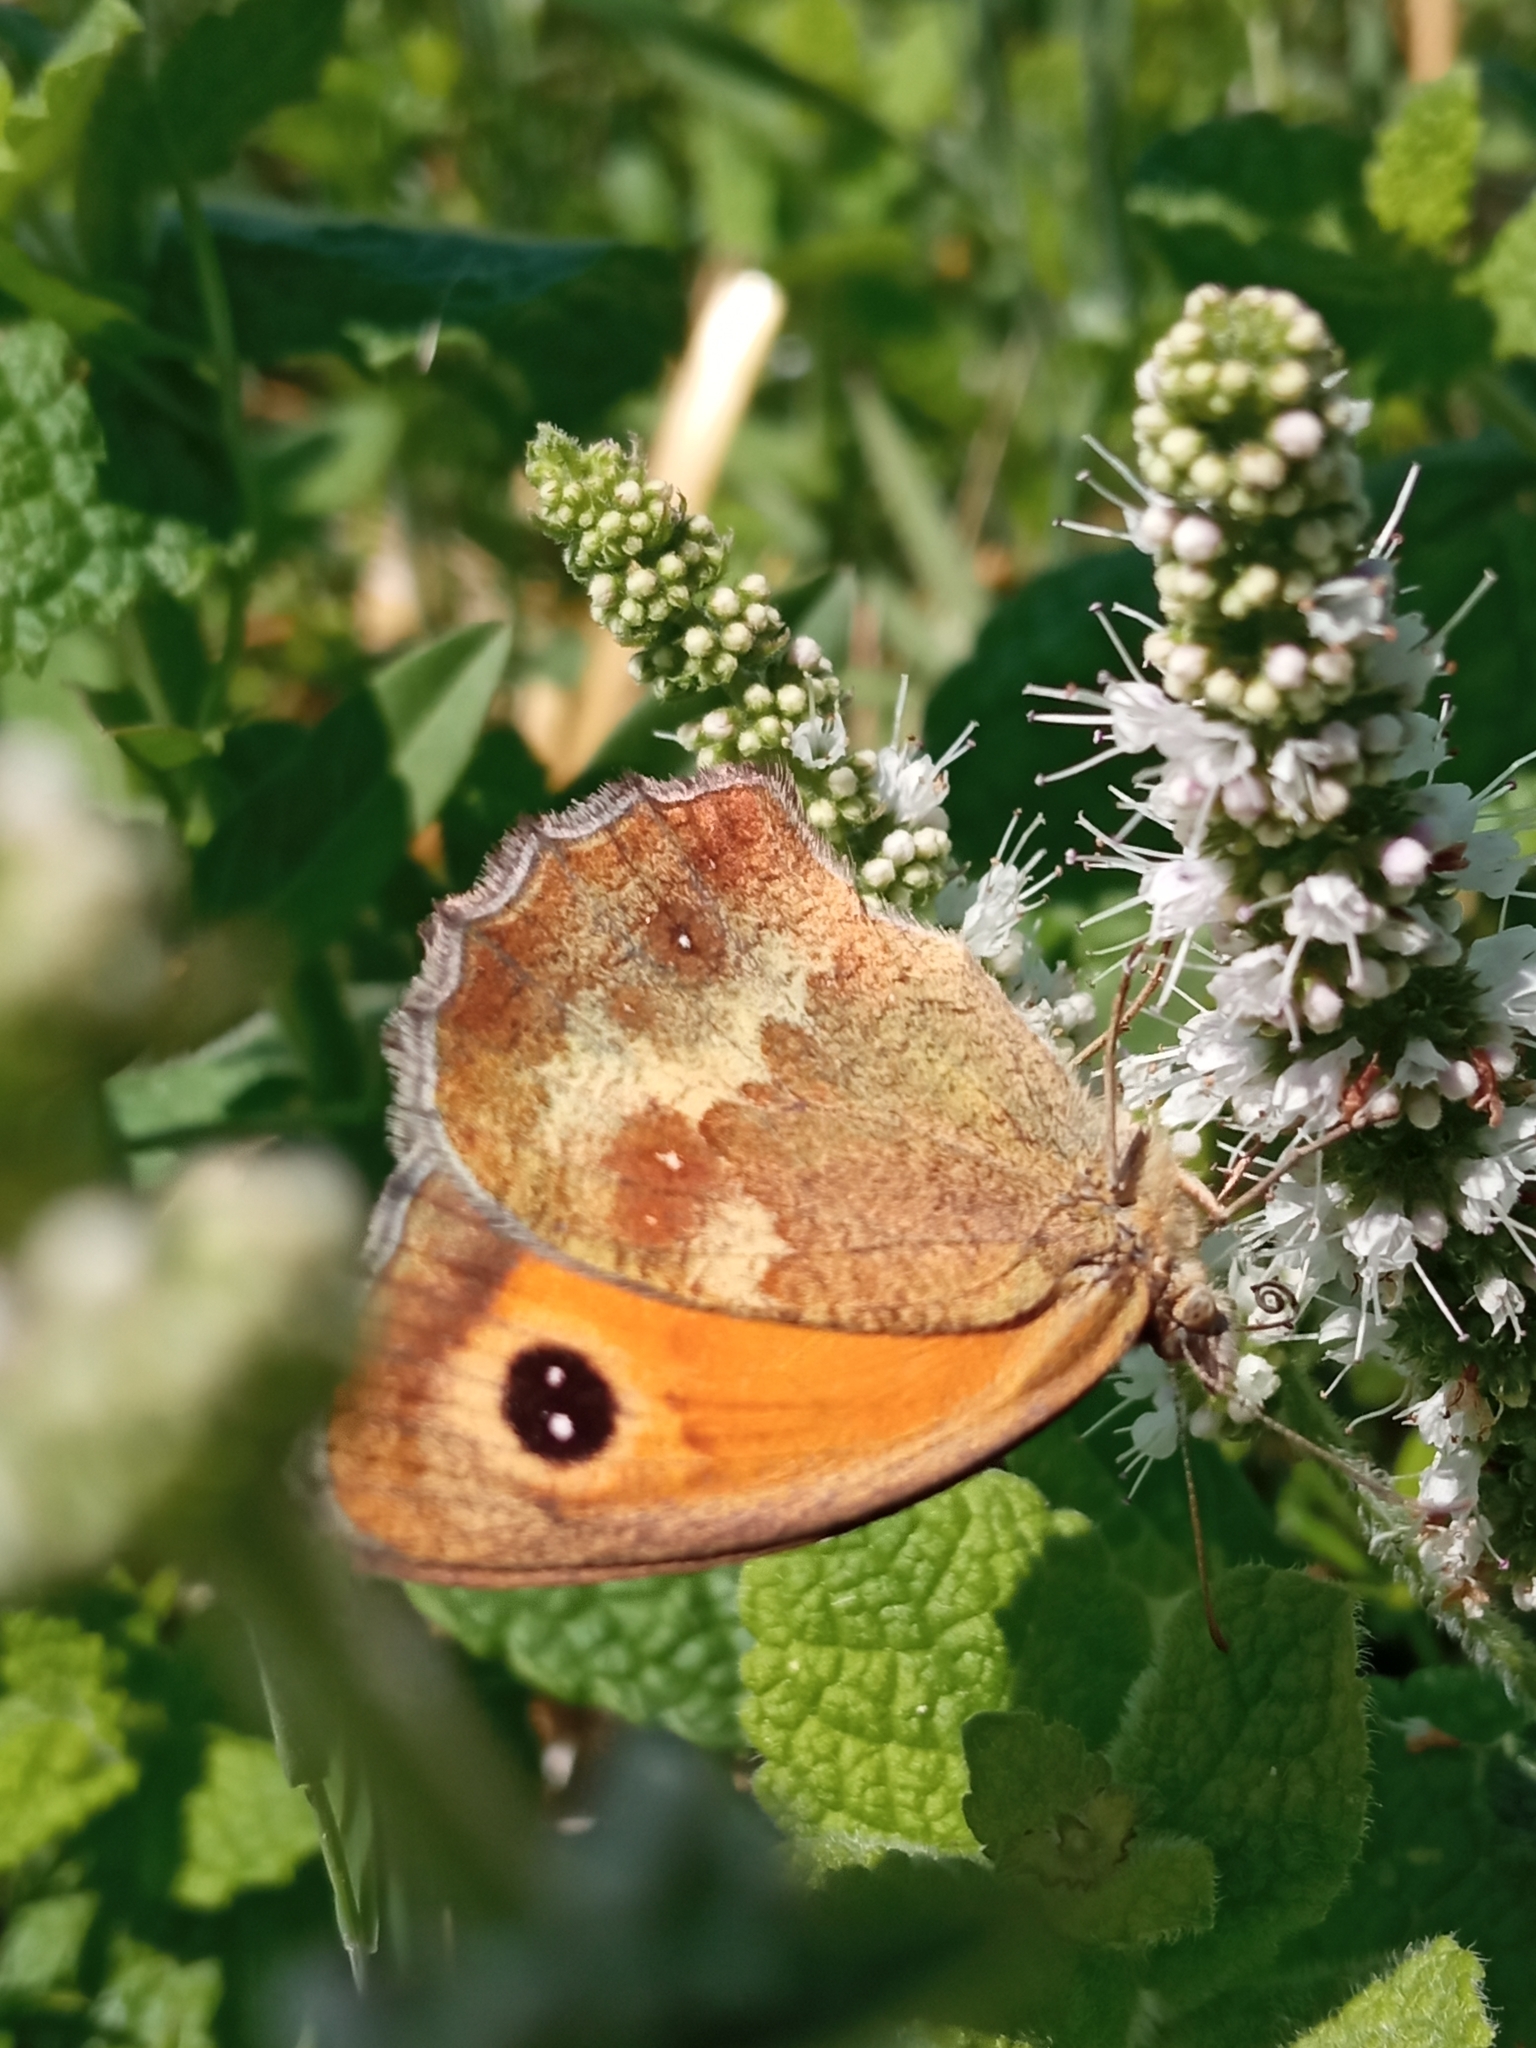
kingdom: Animalia
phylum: Arthropoda
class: Insecta
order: Lepidoptera
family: Nymphalidae
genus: Pyronia
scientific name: Pyronia tithonus
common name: Gatekeeper
